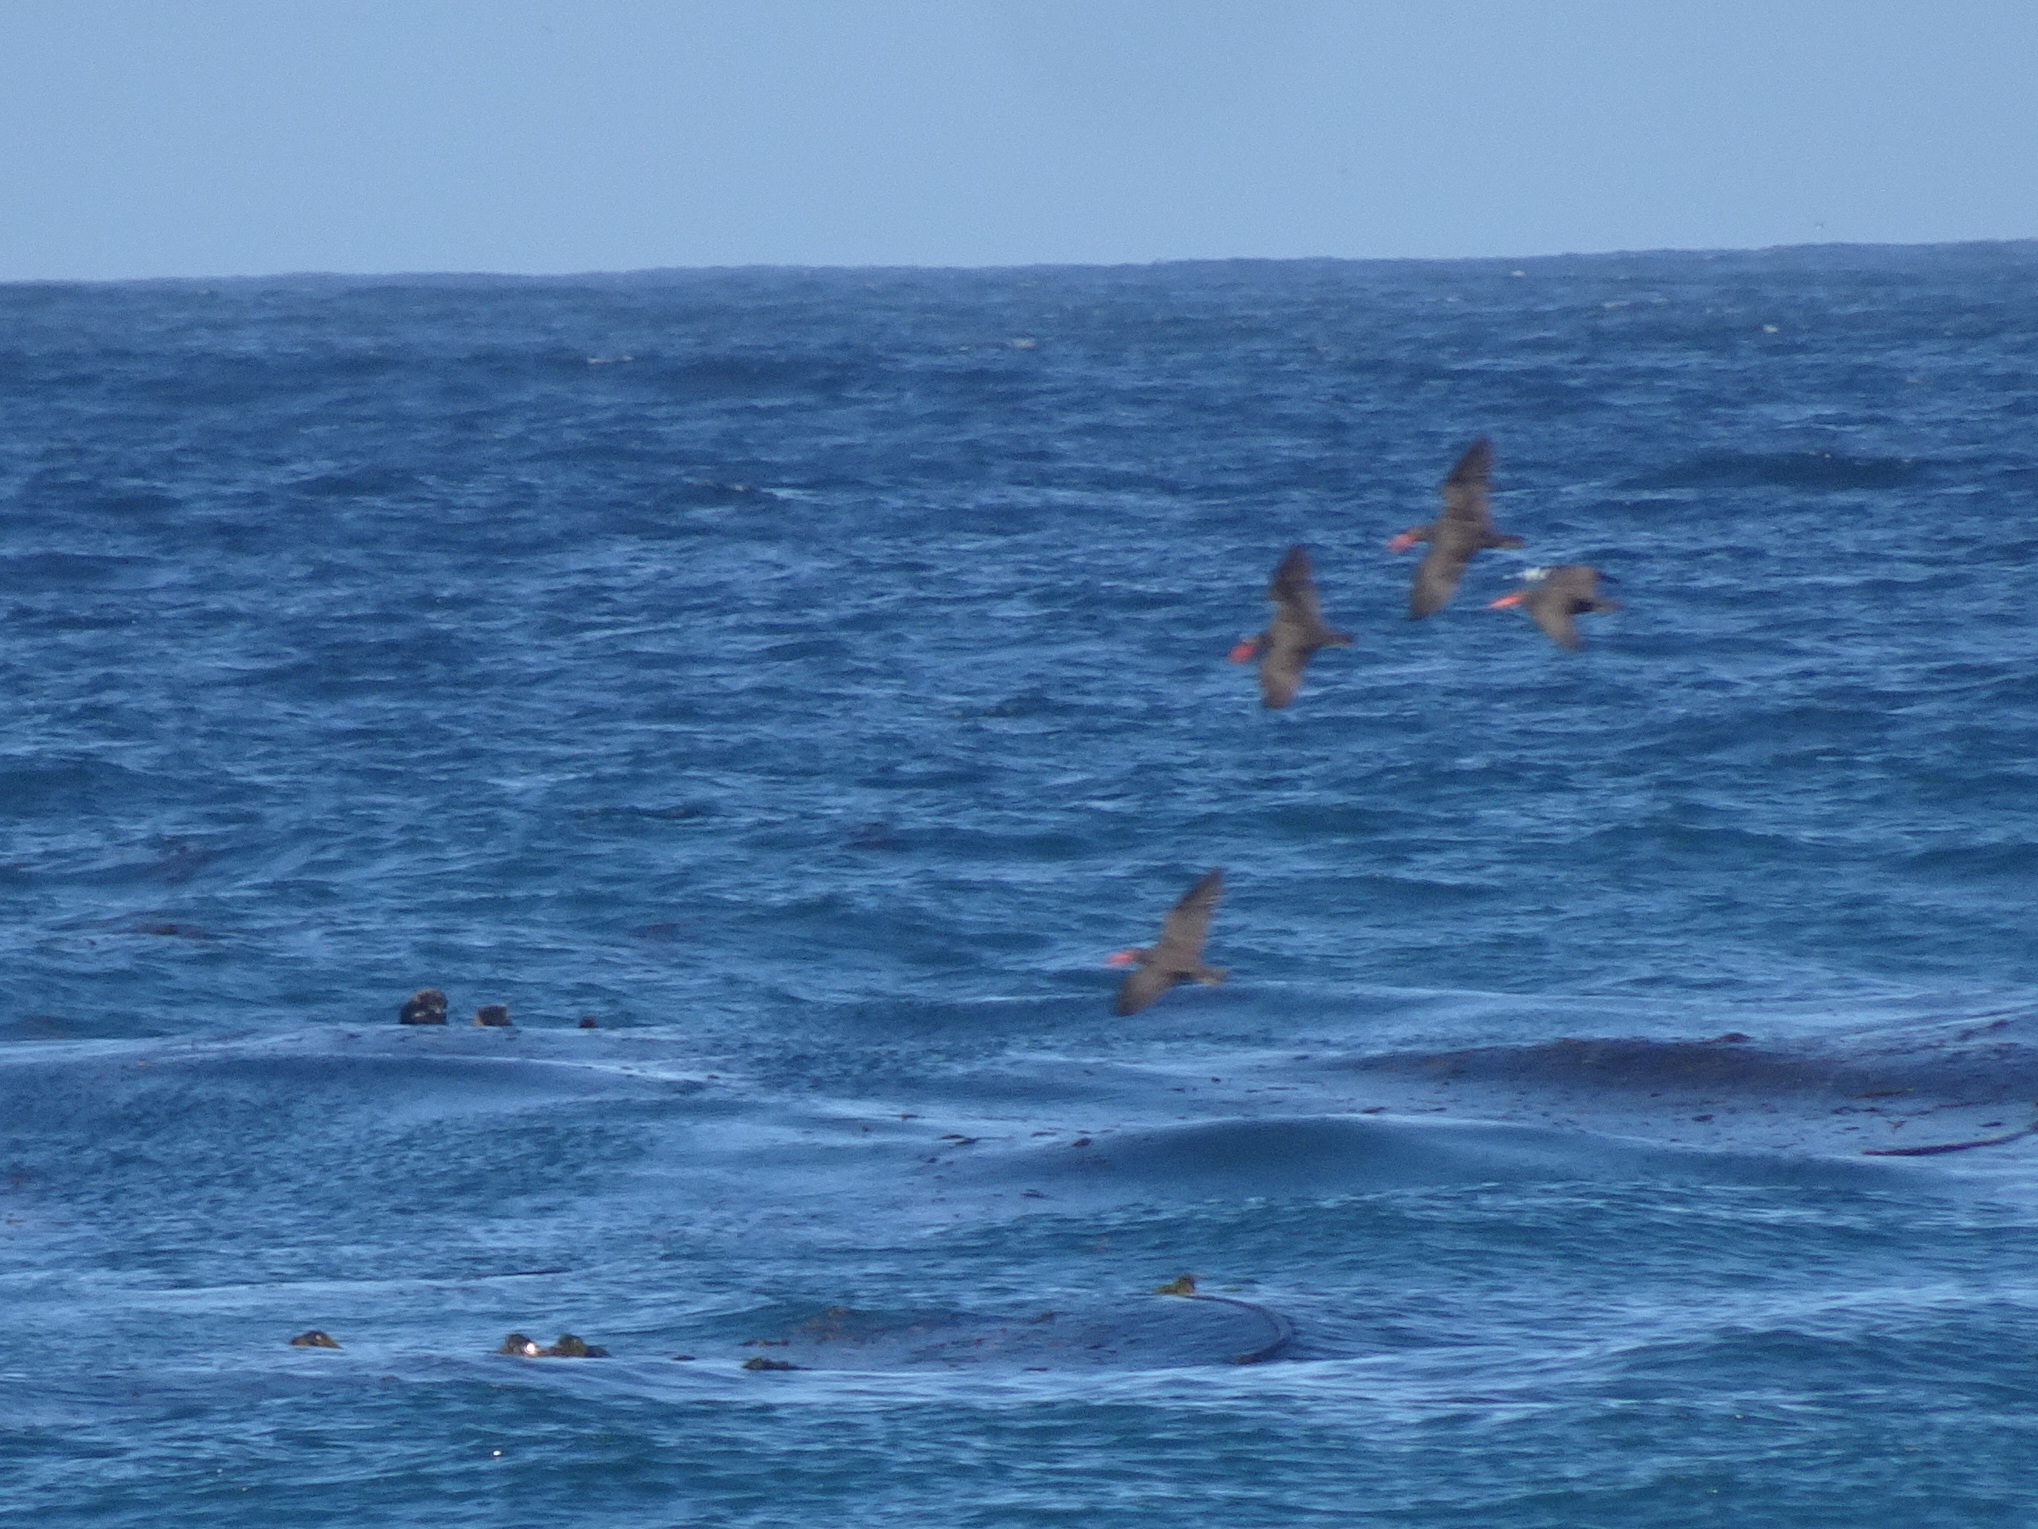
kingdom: Animalia
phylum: Chordata
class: Aves
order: Charadriiformes
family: Haematopodidae
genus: Haematopus
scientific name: Haematopus bachmani
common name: Black oystercatcher
